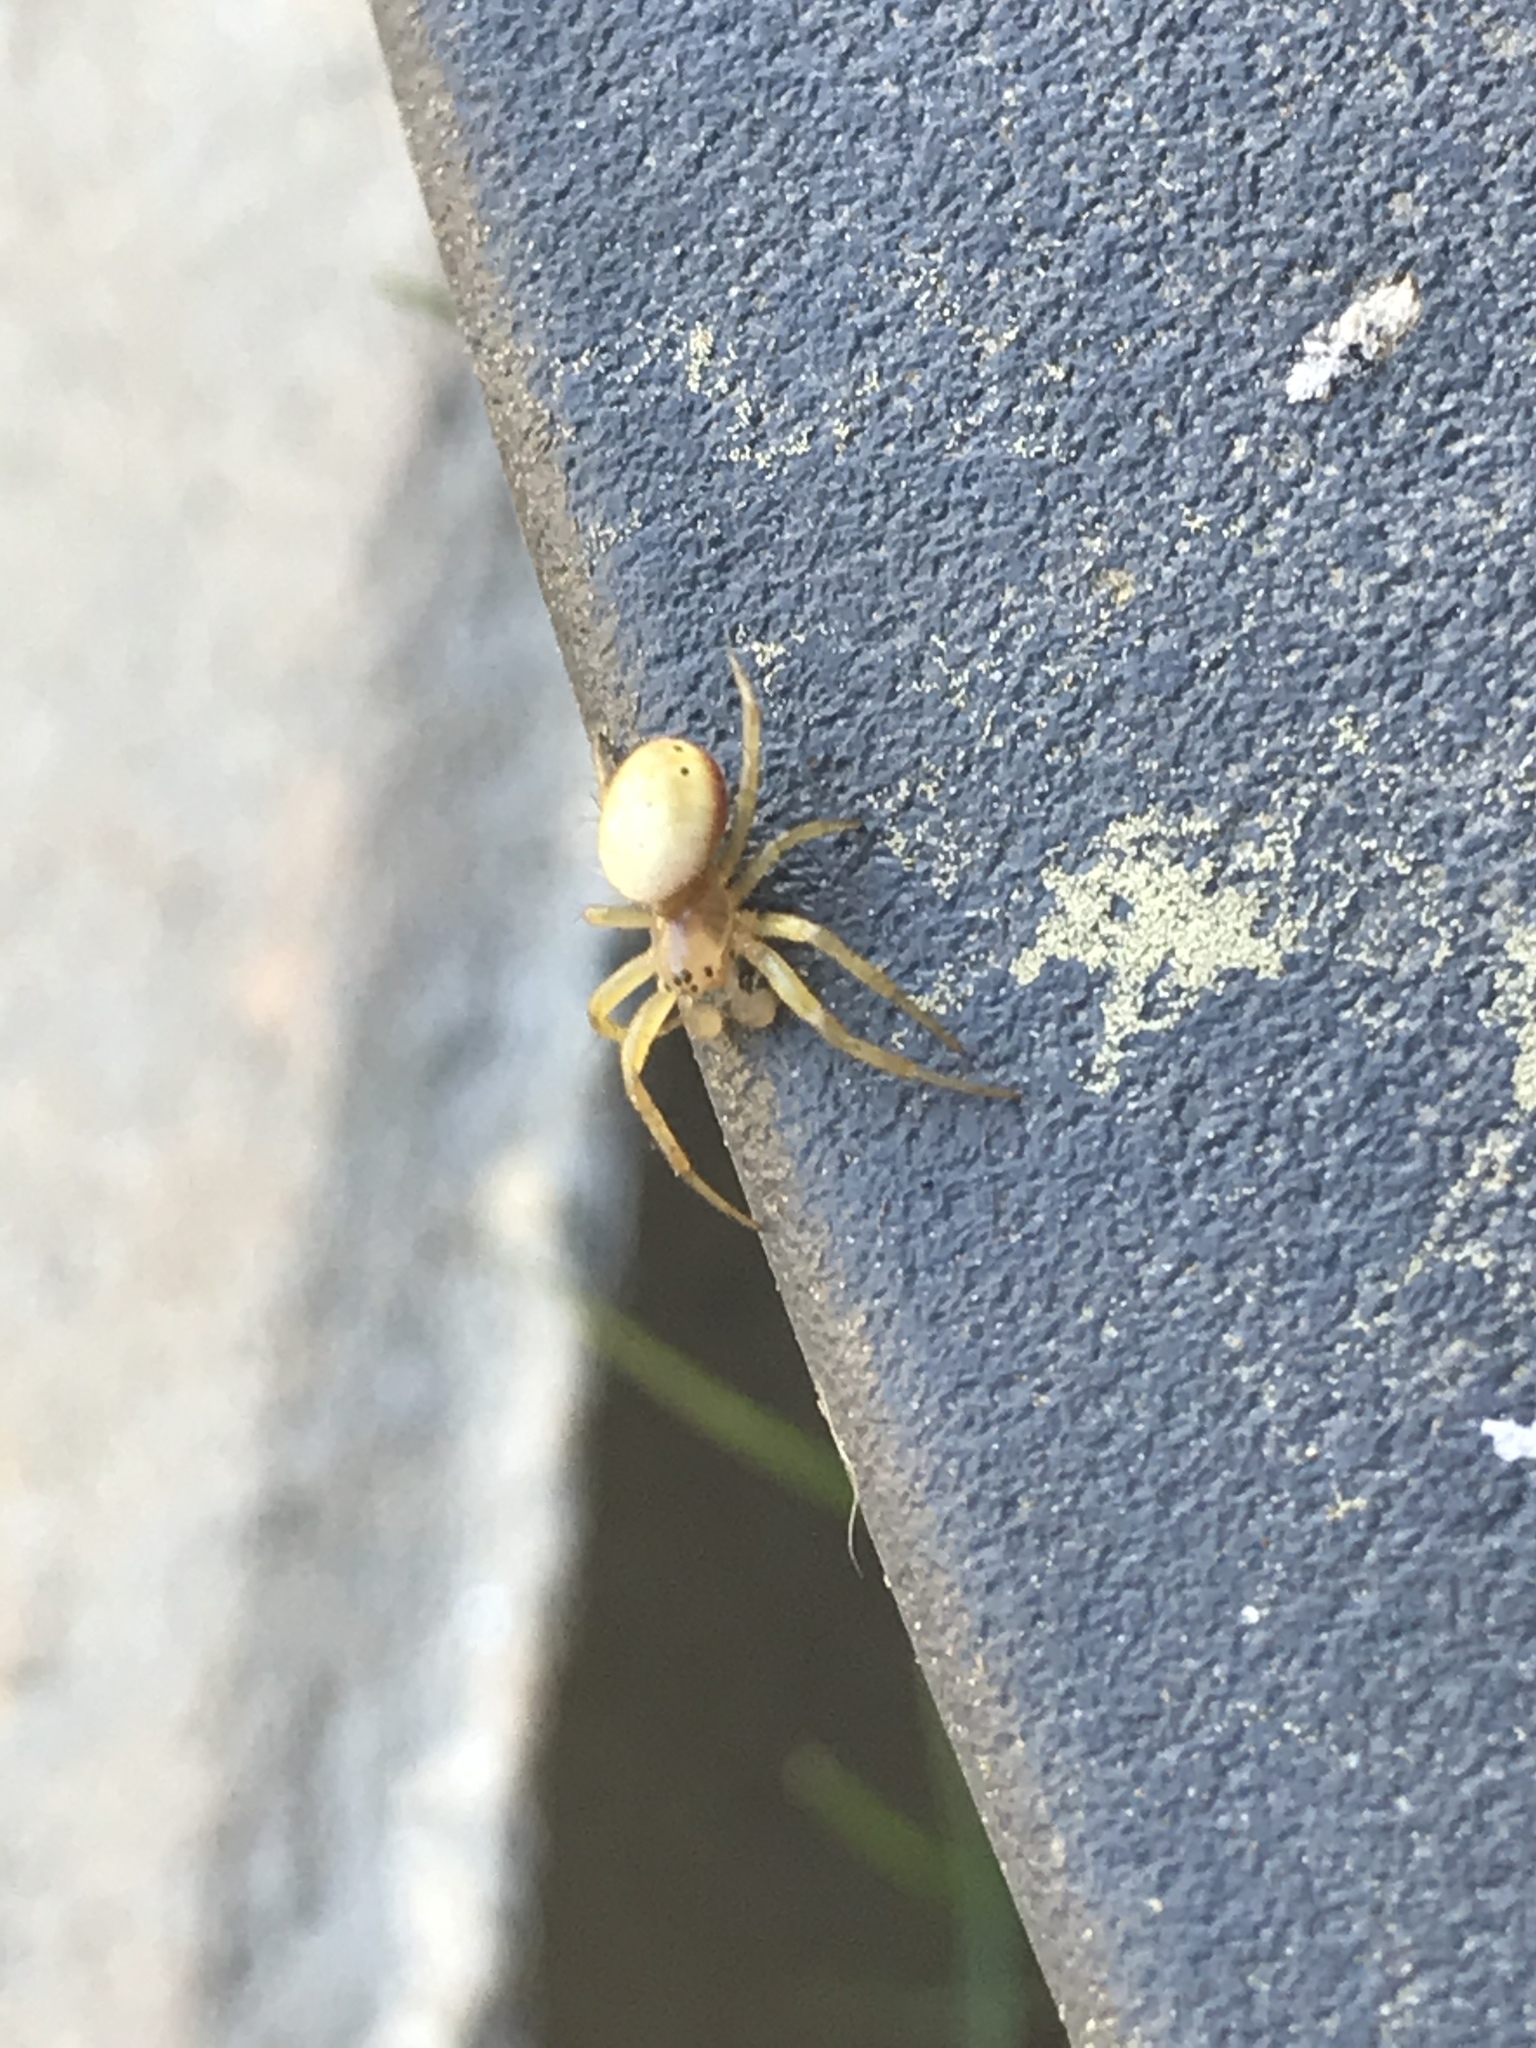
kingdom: Animalia
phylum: Arthropoda
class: Arachnida
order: Araneae
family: Araneidae
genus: Araniella
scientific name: Araniella displicata
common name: Sixspotted orb weaver
